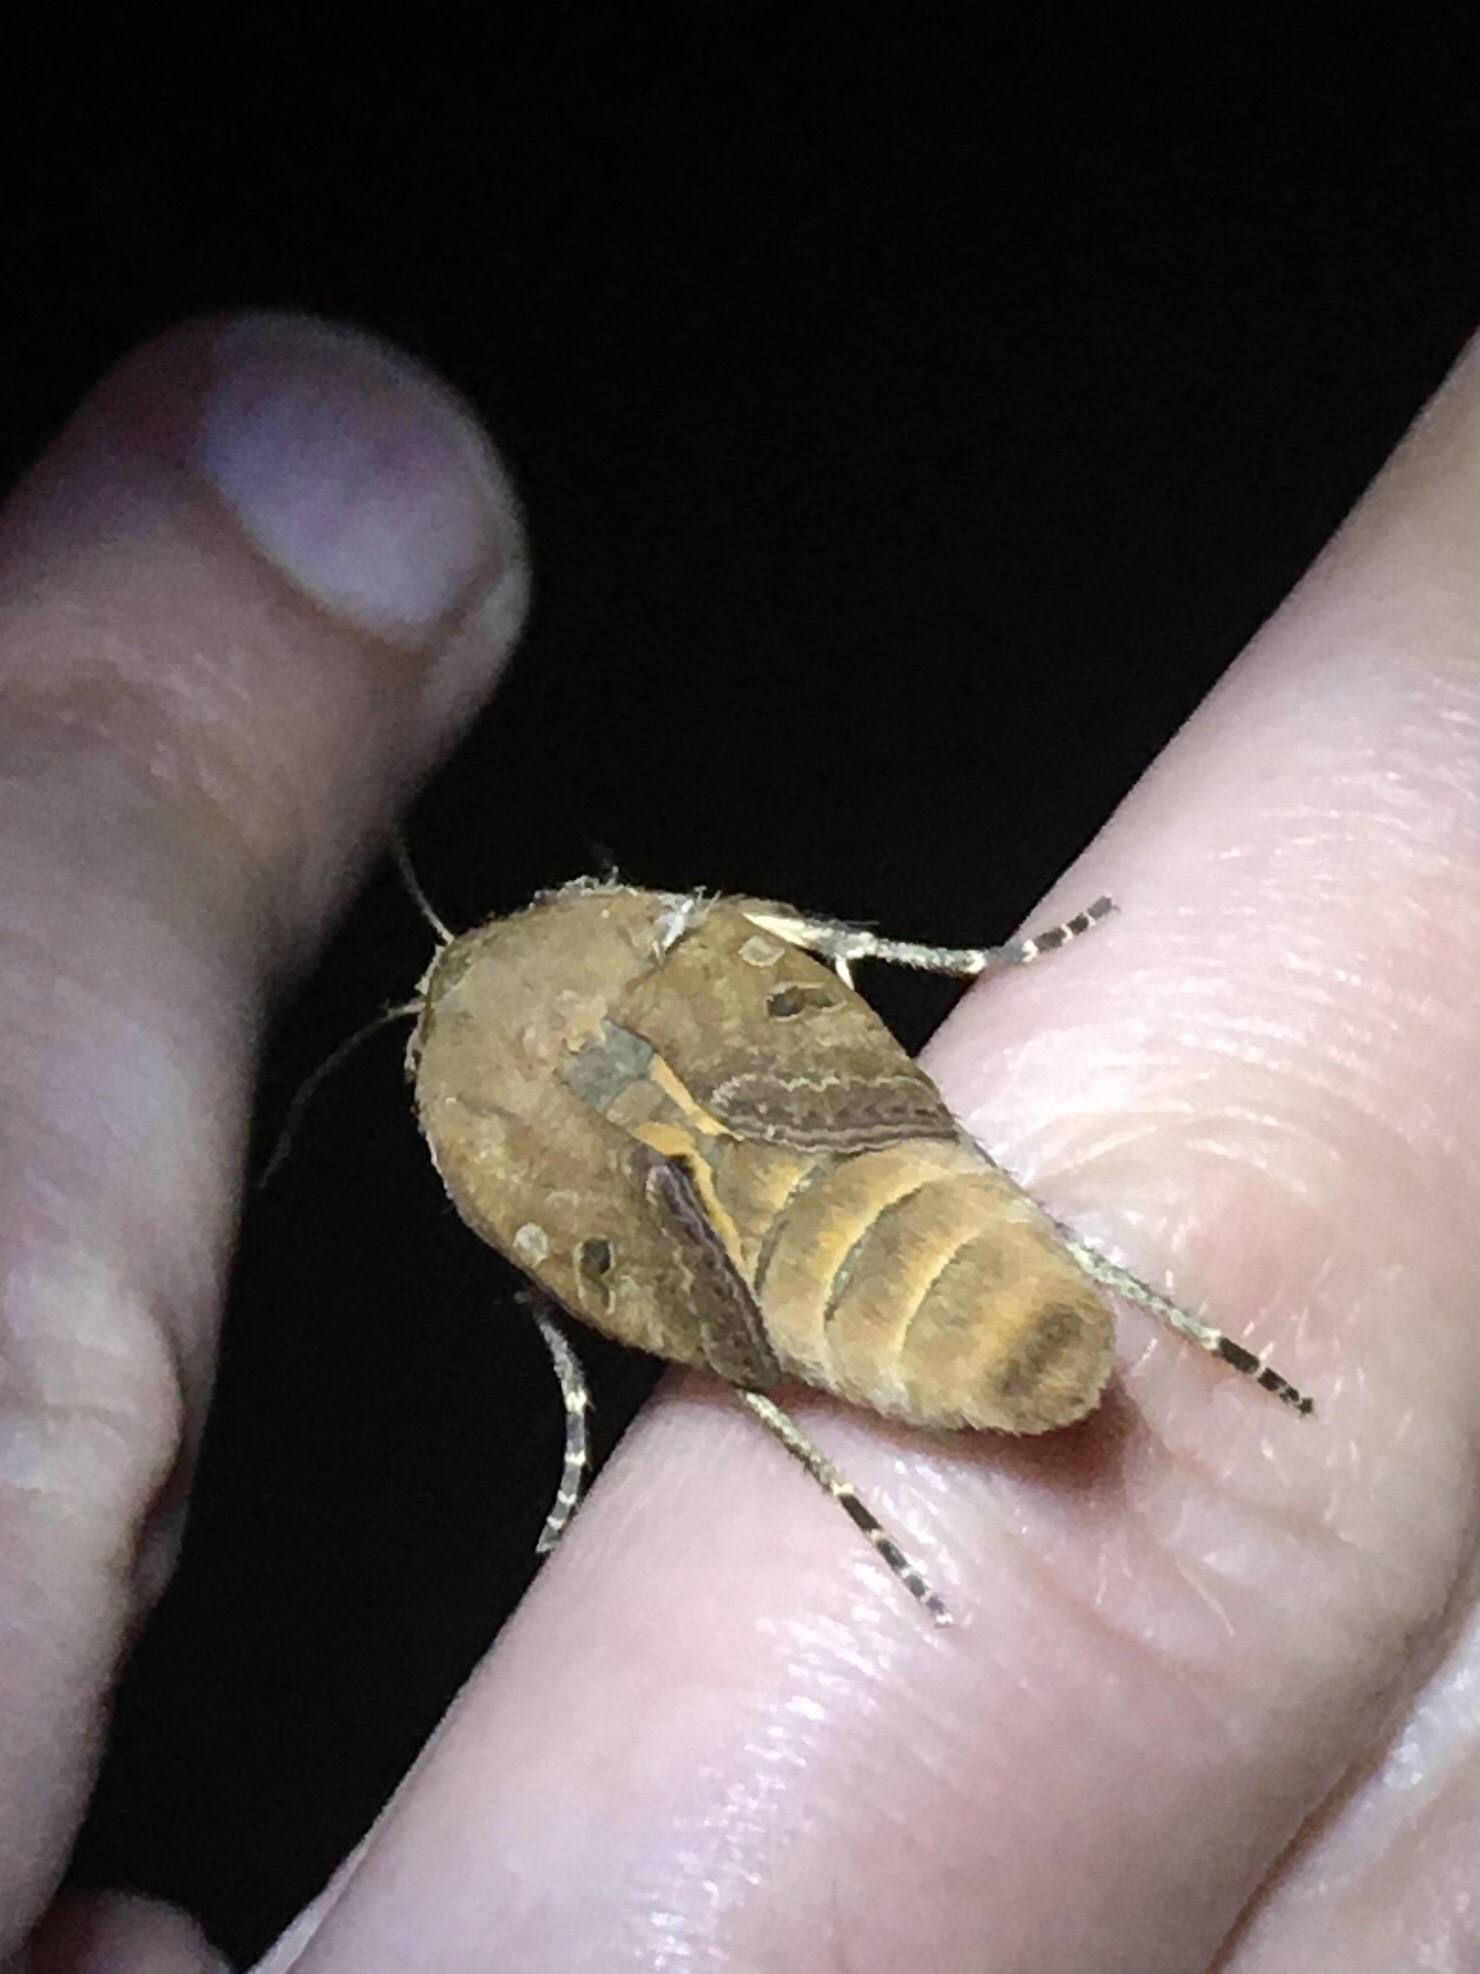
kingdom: Animalia
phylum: Arthropoda
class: Insecta
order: Lepidoptera
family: Noctuidae
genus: Noctua
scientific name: Noctua pronuba
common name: Large yellow underwing
